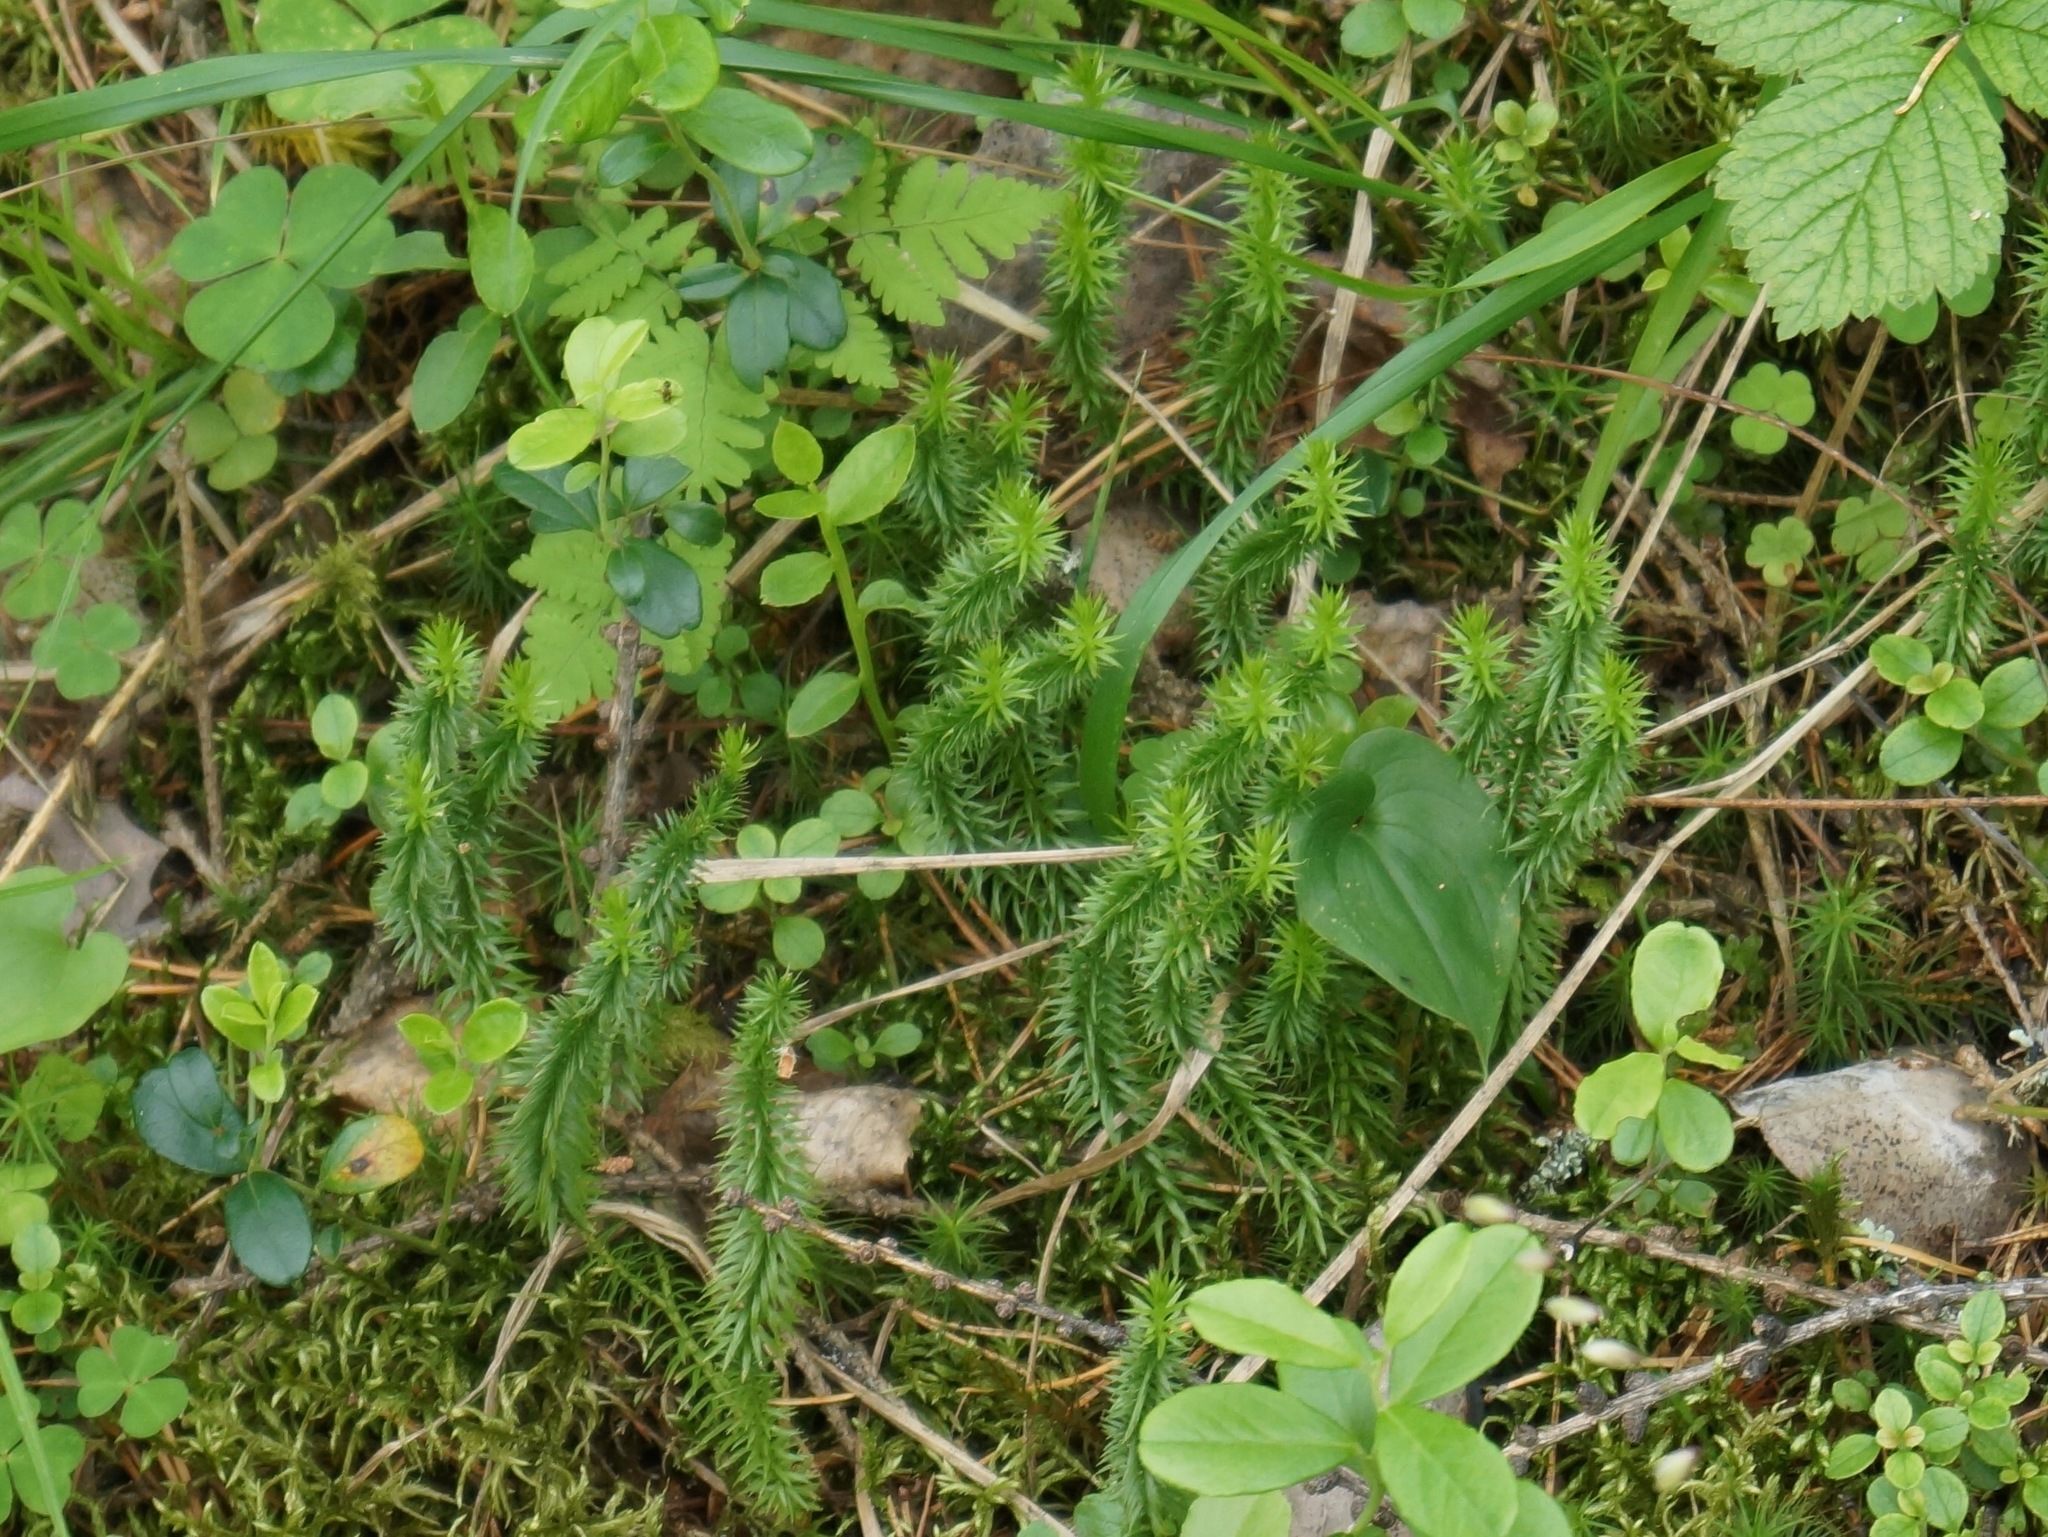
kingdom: Plantae
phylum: Tracheophyta
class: Lycopodiopsida
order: Lycopodiales
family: Lycopodiaceae
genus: Spinulum
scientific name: Spinulum annotinum
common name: Interrupted club-moss
